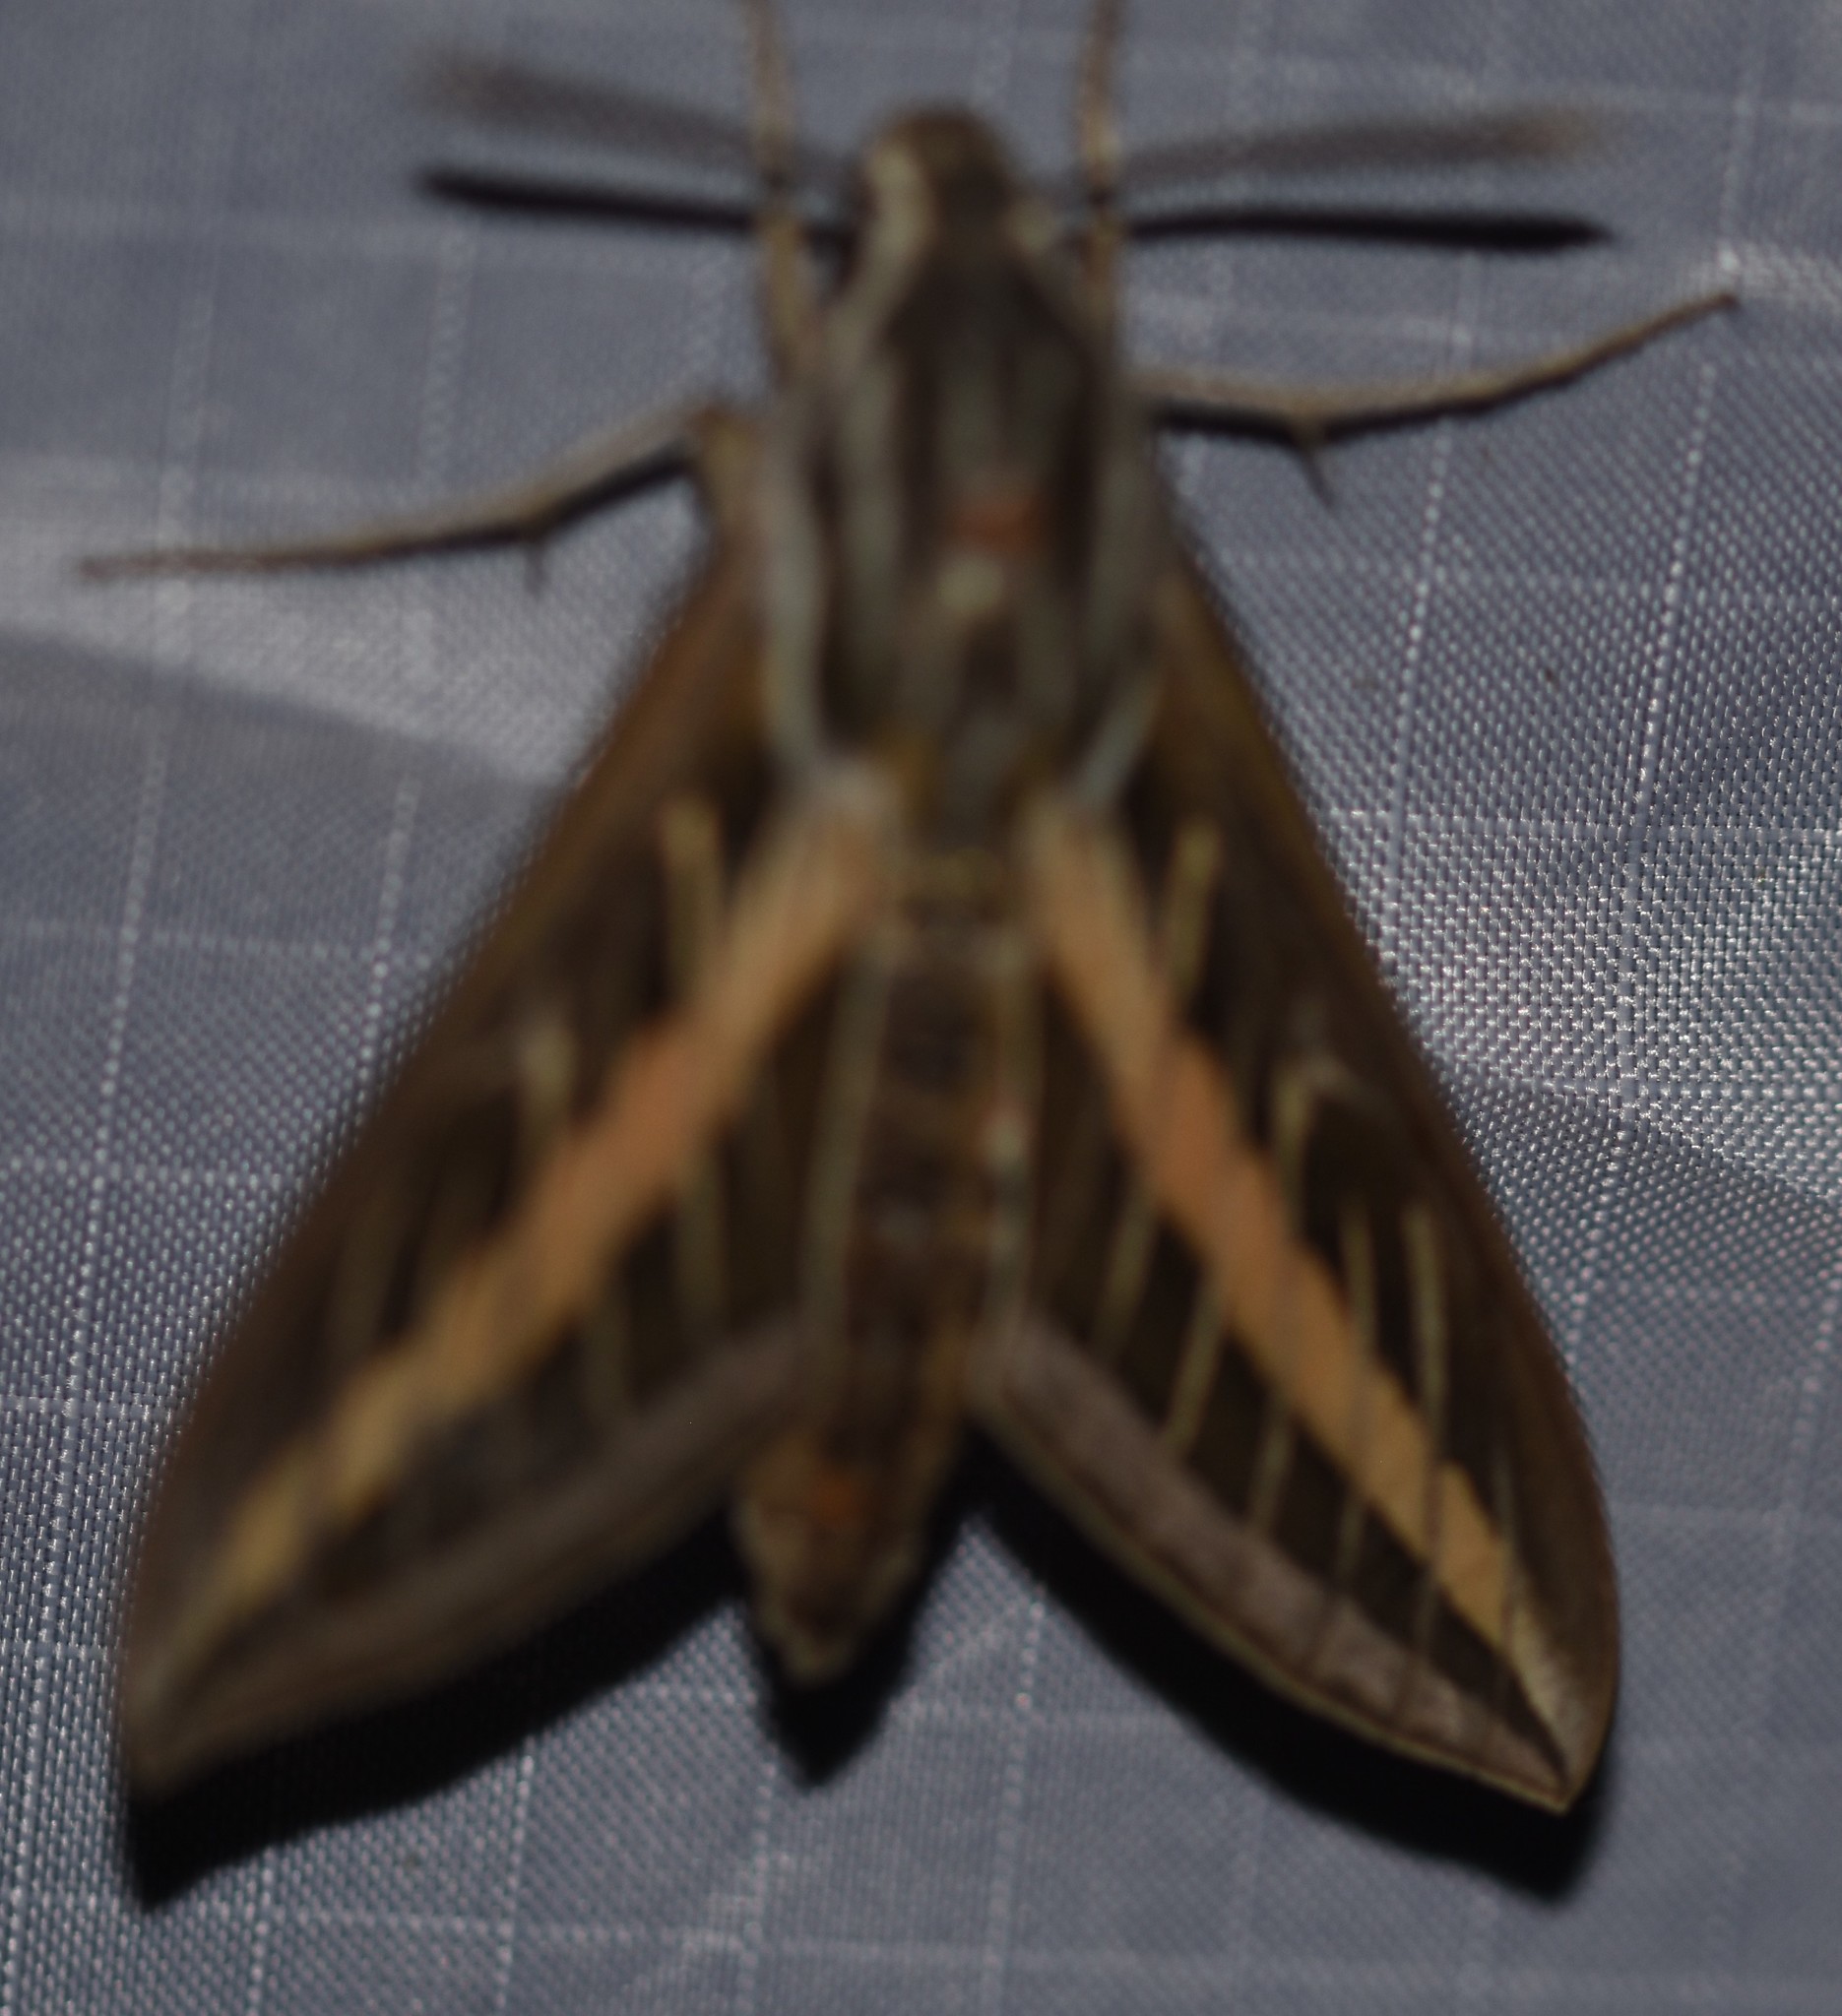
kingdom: Animalia
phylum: Arthropoda
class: Insecta
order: Lepidoptera
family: Sphingidae
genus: Hyles
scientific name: Hyles lineata
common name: White-lined sphinx
